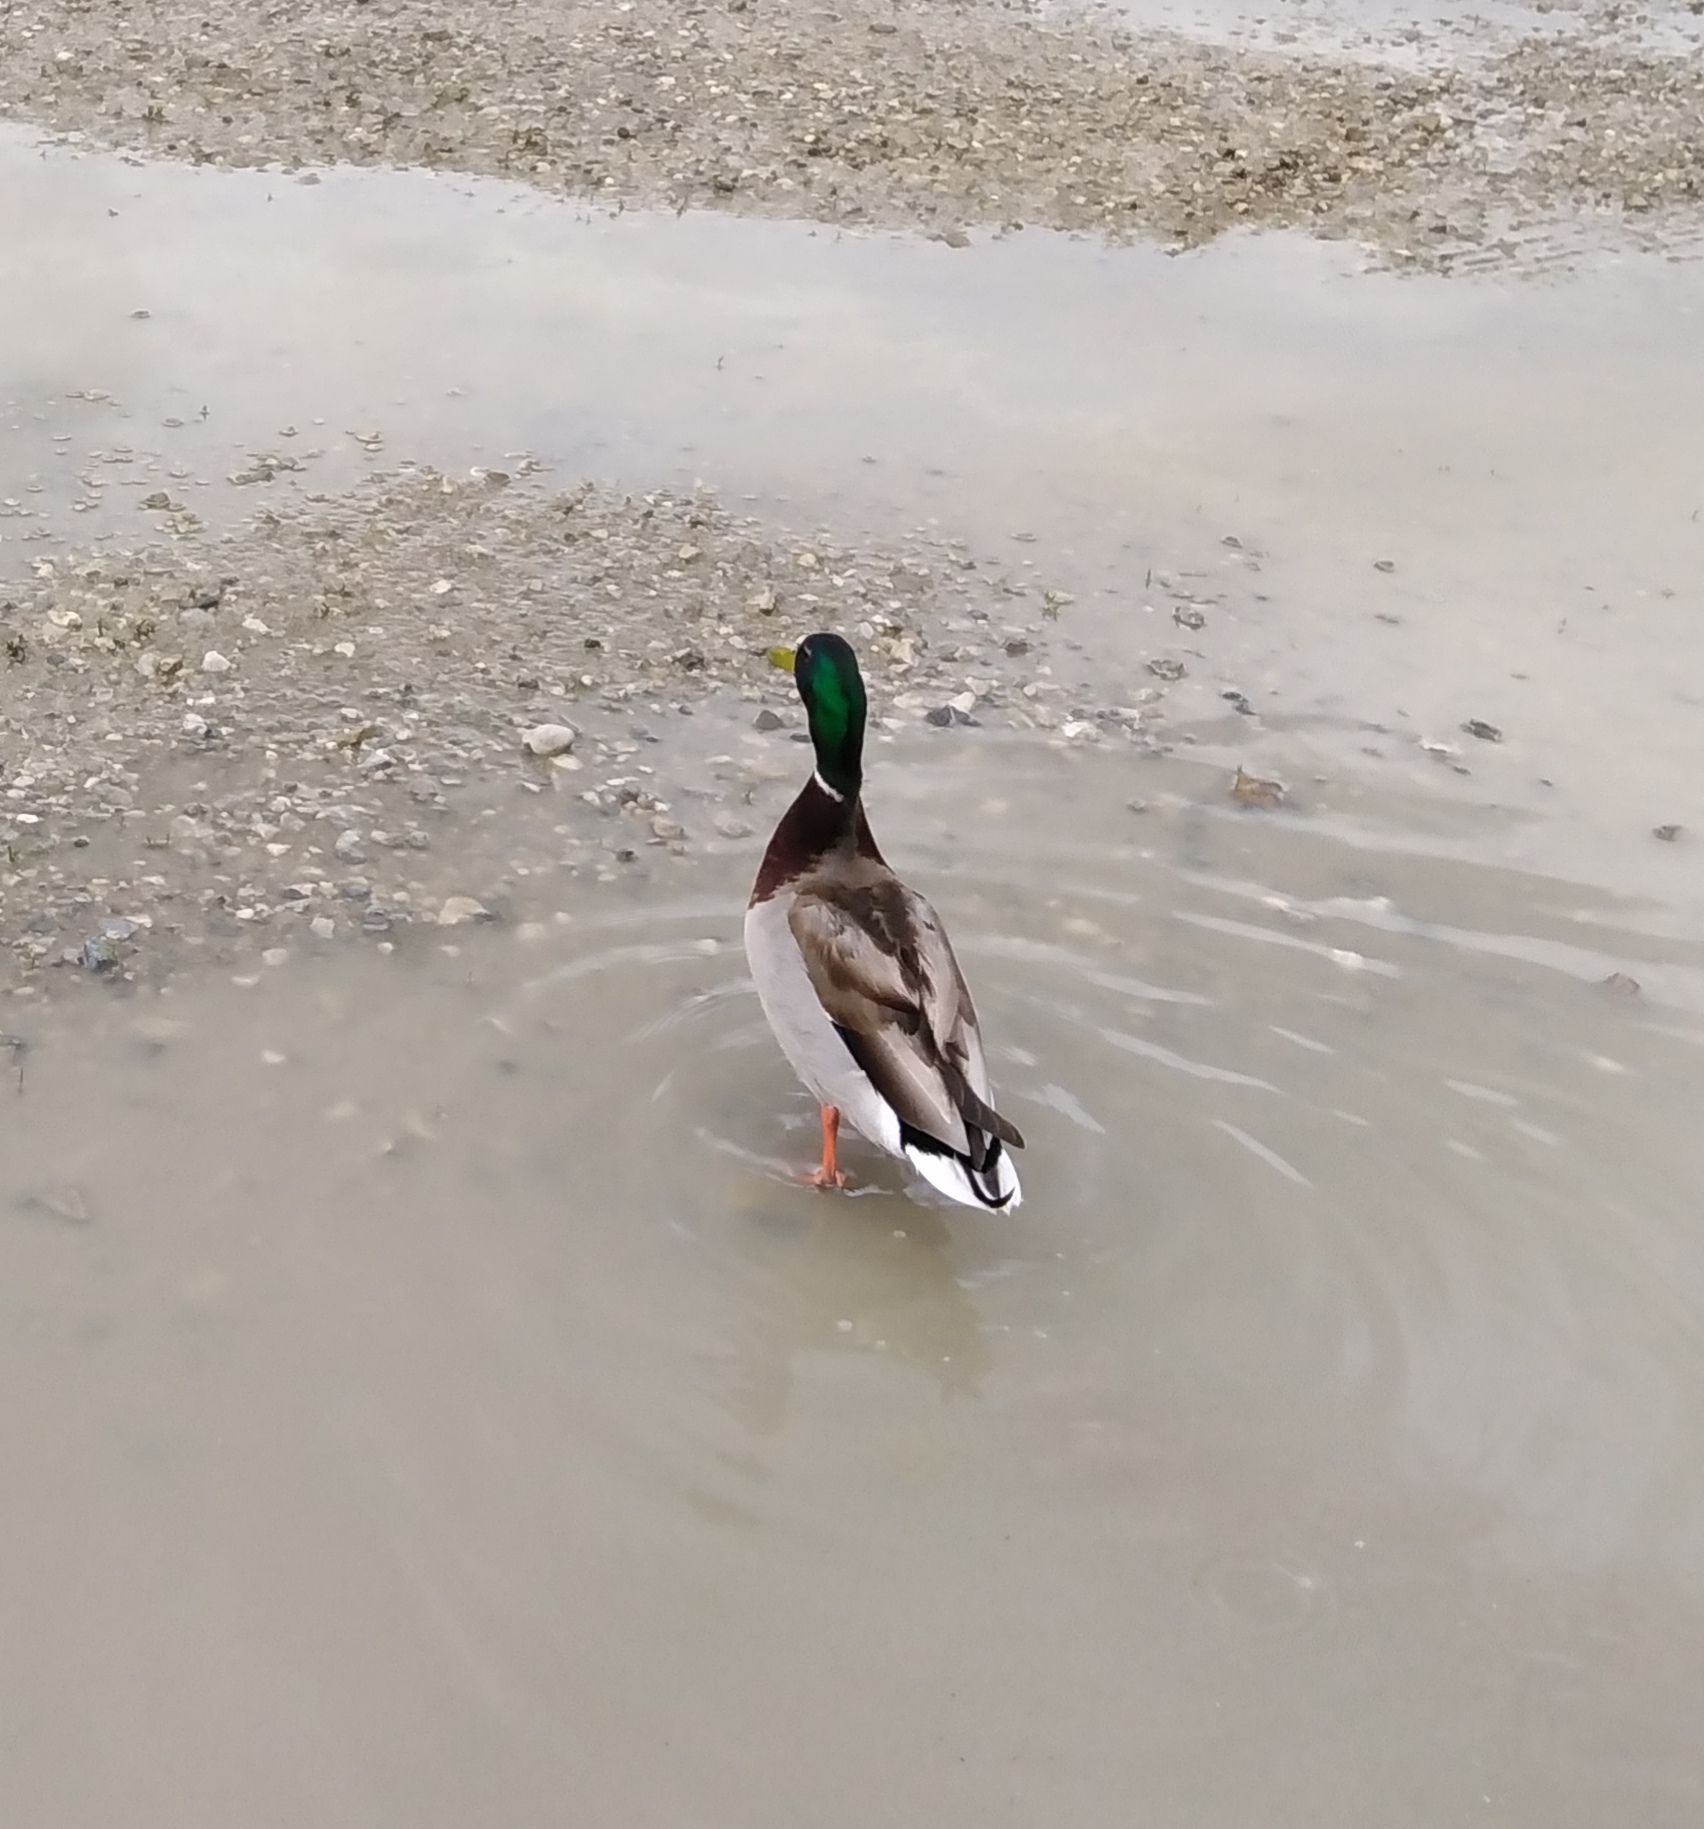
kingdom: Animalia
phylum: Chordata
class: Aves
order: Anseriformes
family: Anatidae
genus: Anas
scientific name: Anas platyrhynchos
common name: Mallard
